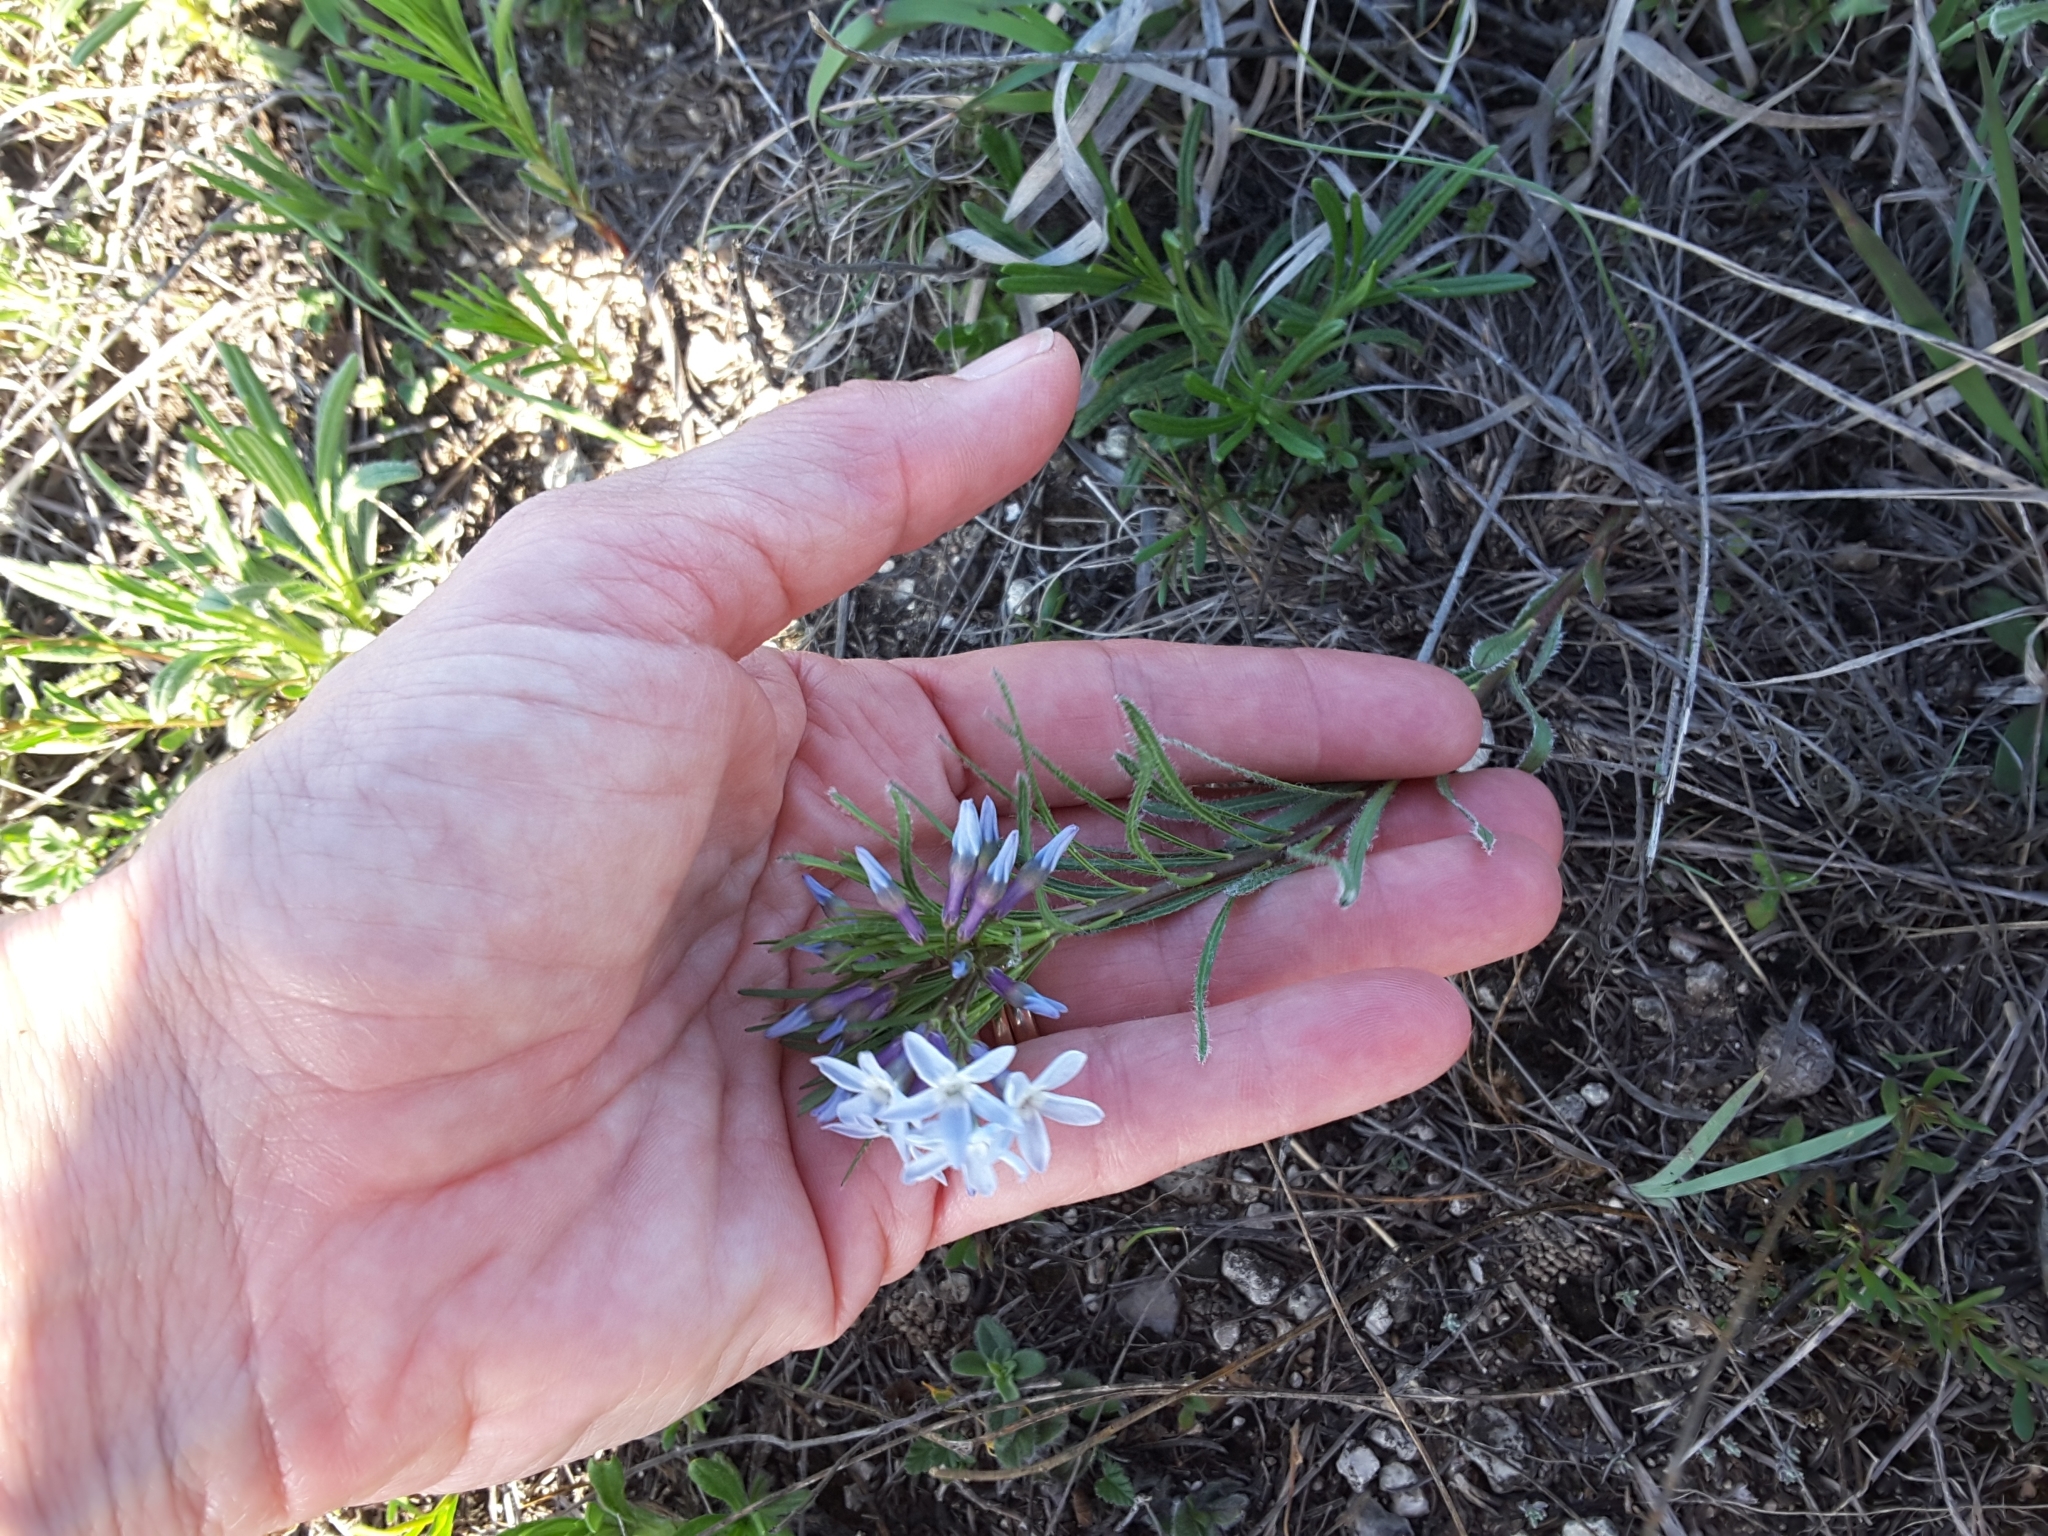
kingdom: Plantae
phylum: Tracheophyta
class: Magnoliopsida
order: Gentianales
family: Apocynaceae
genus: Amsonia
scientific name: Amsonia ciliata
